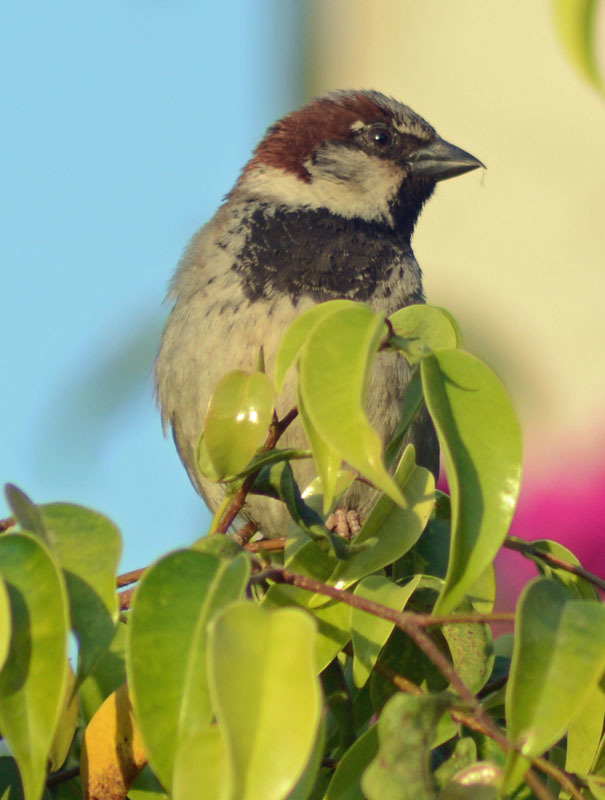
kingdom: Animalia
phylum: Chordata
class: Aves
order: Passeriformes
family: Passeridae
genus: Passer
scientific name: Passer domesticus
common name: House sparrow
